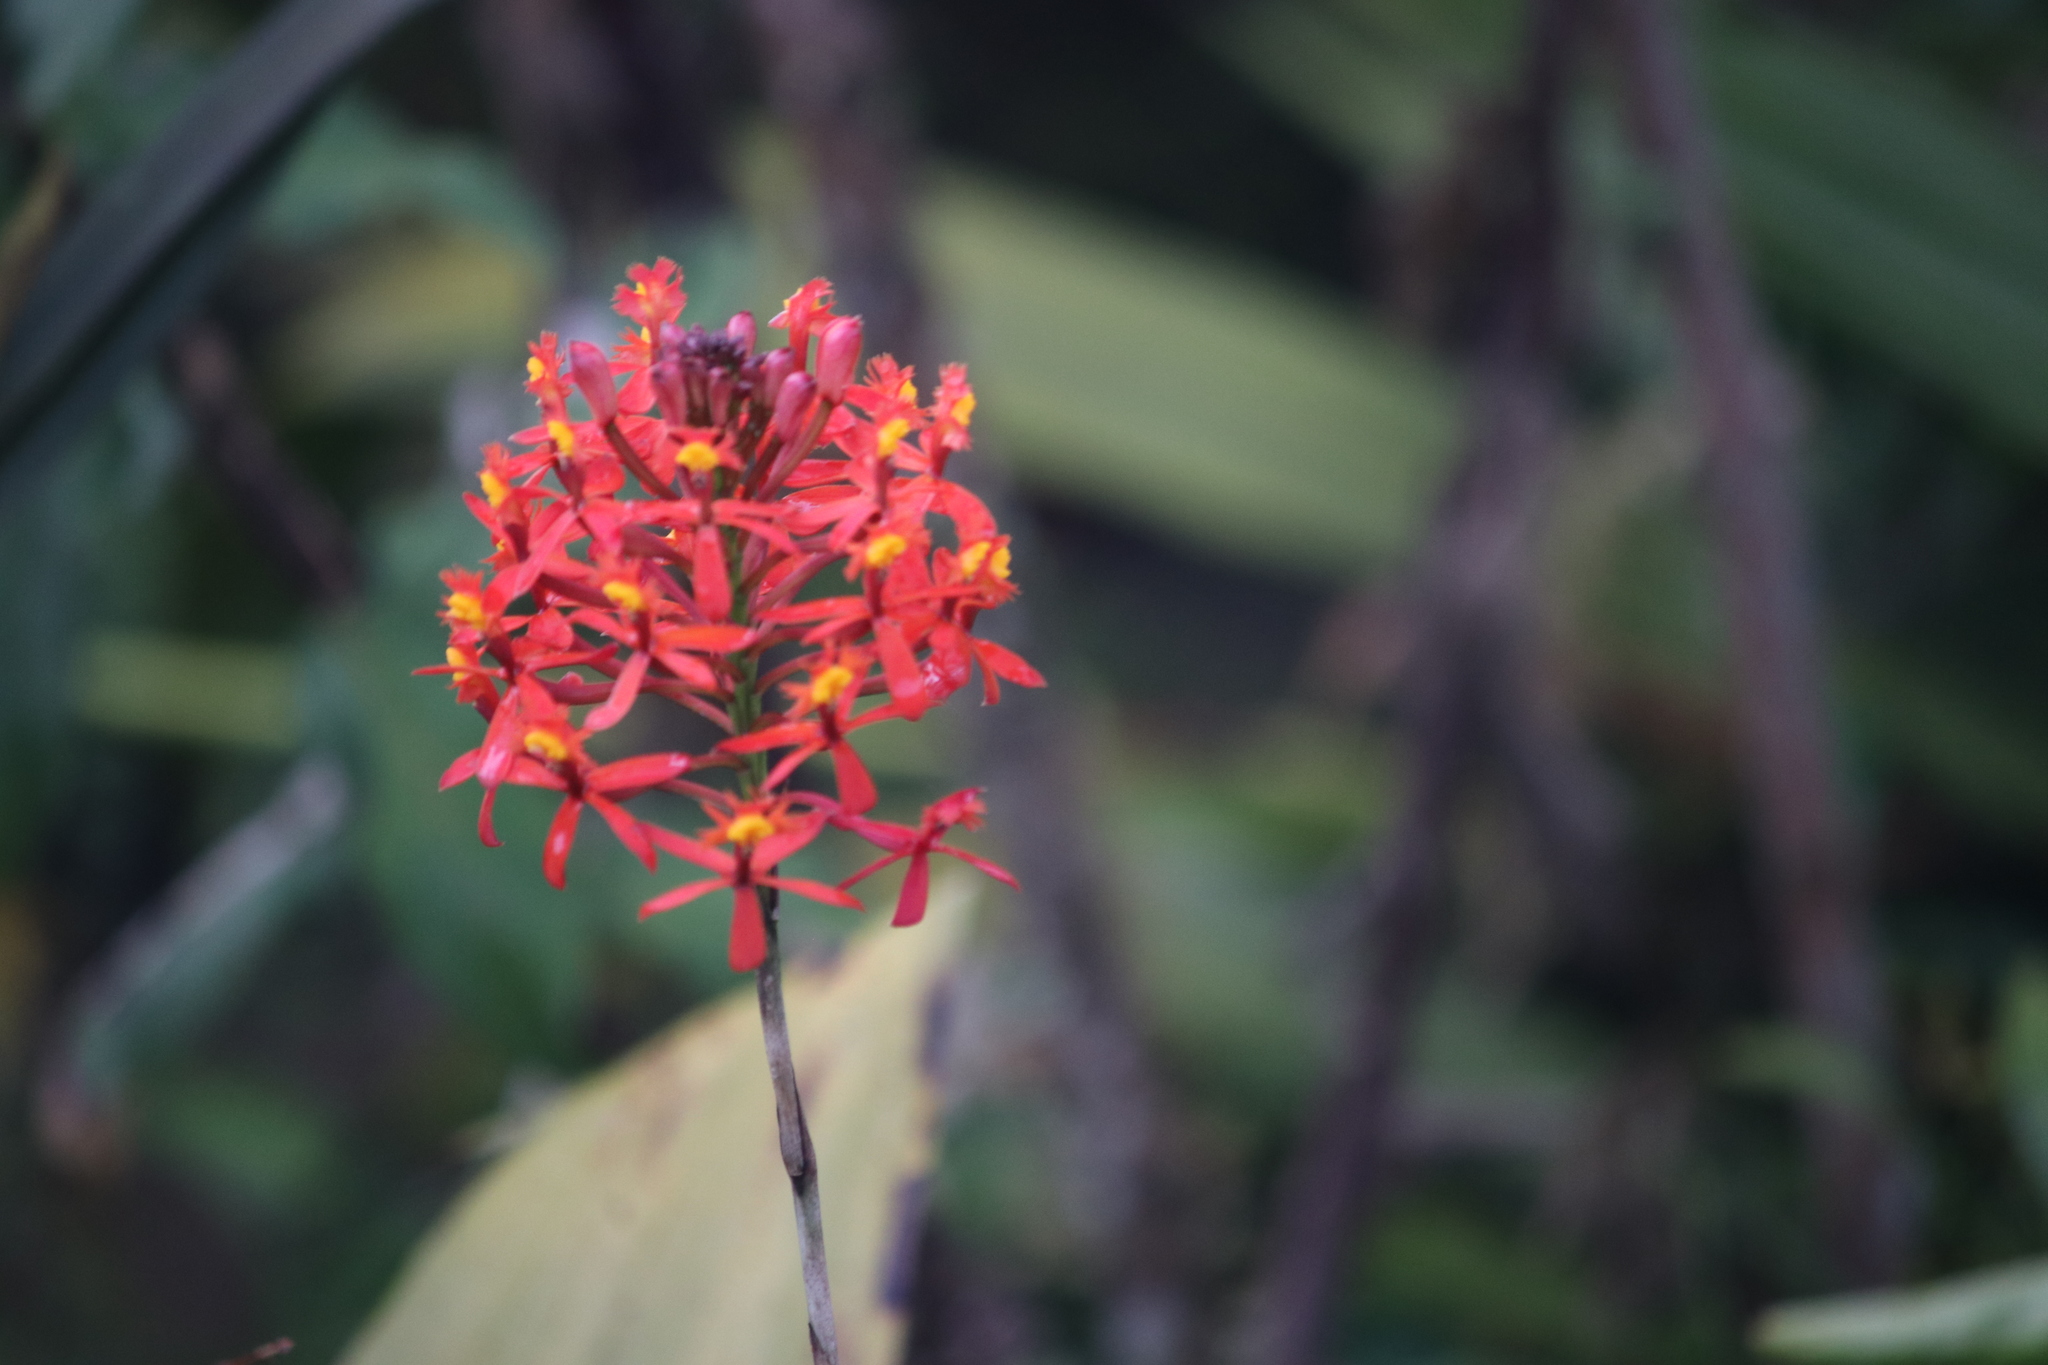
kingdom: Plantae
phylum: Tracheophyta
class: Liliopsida
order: Asparagales
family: Orchidaceae
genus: Epidendrum
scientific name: Epidendrum secundum
